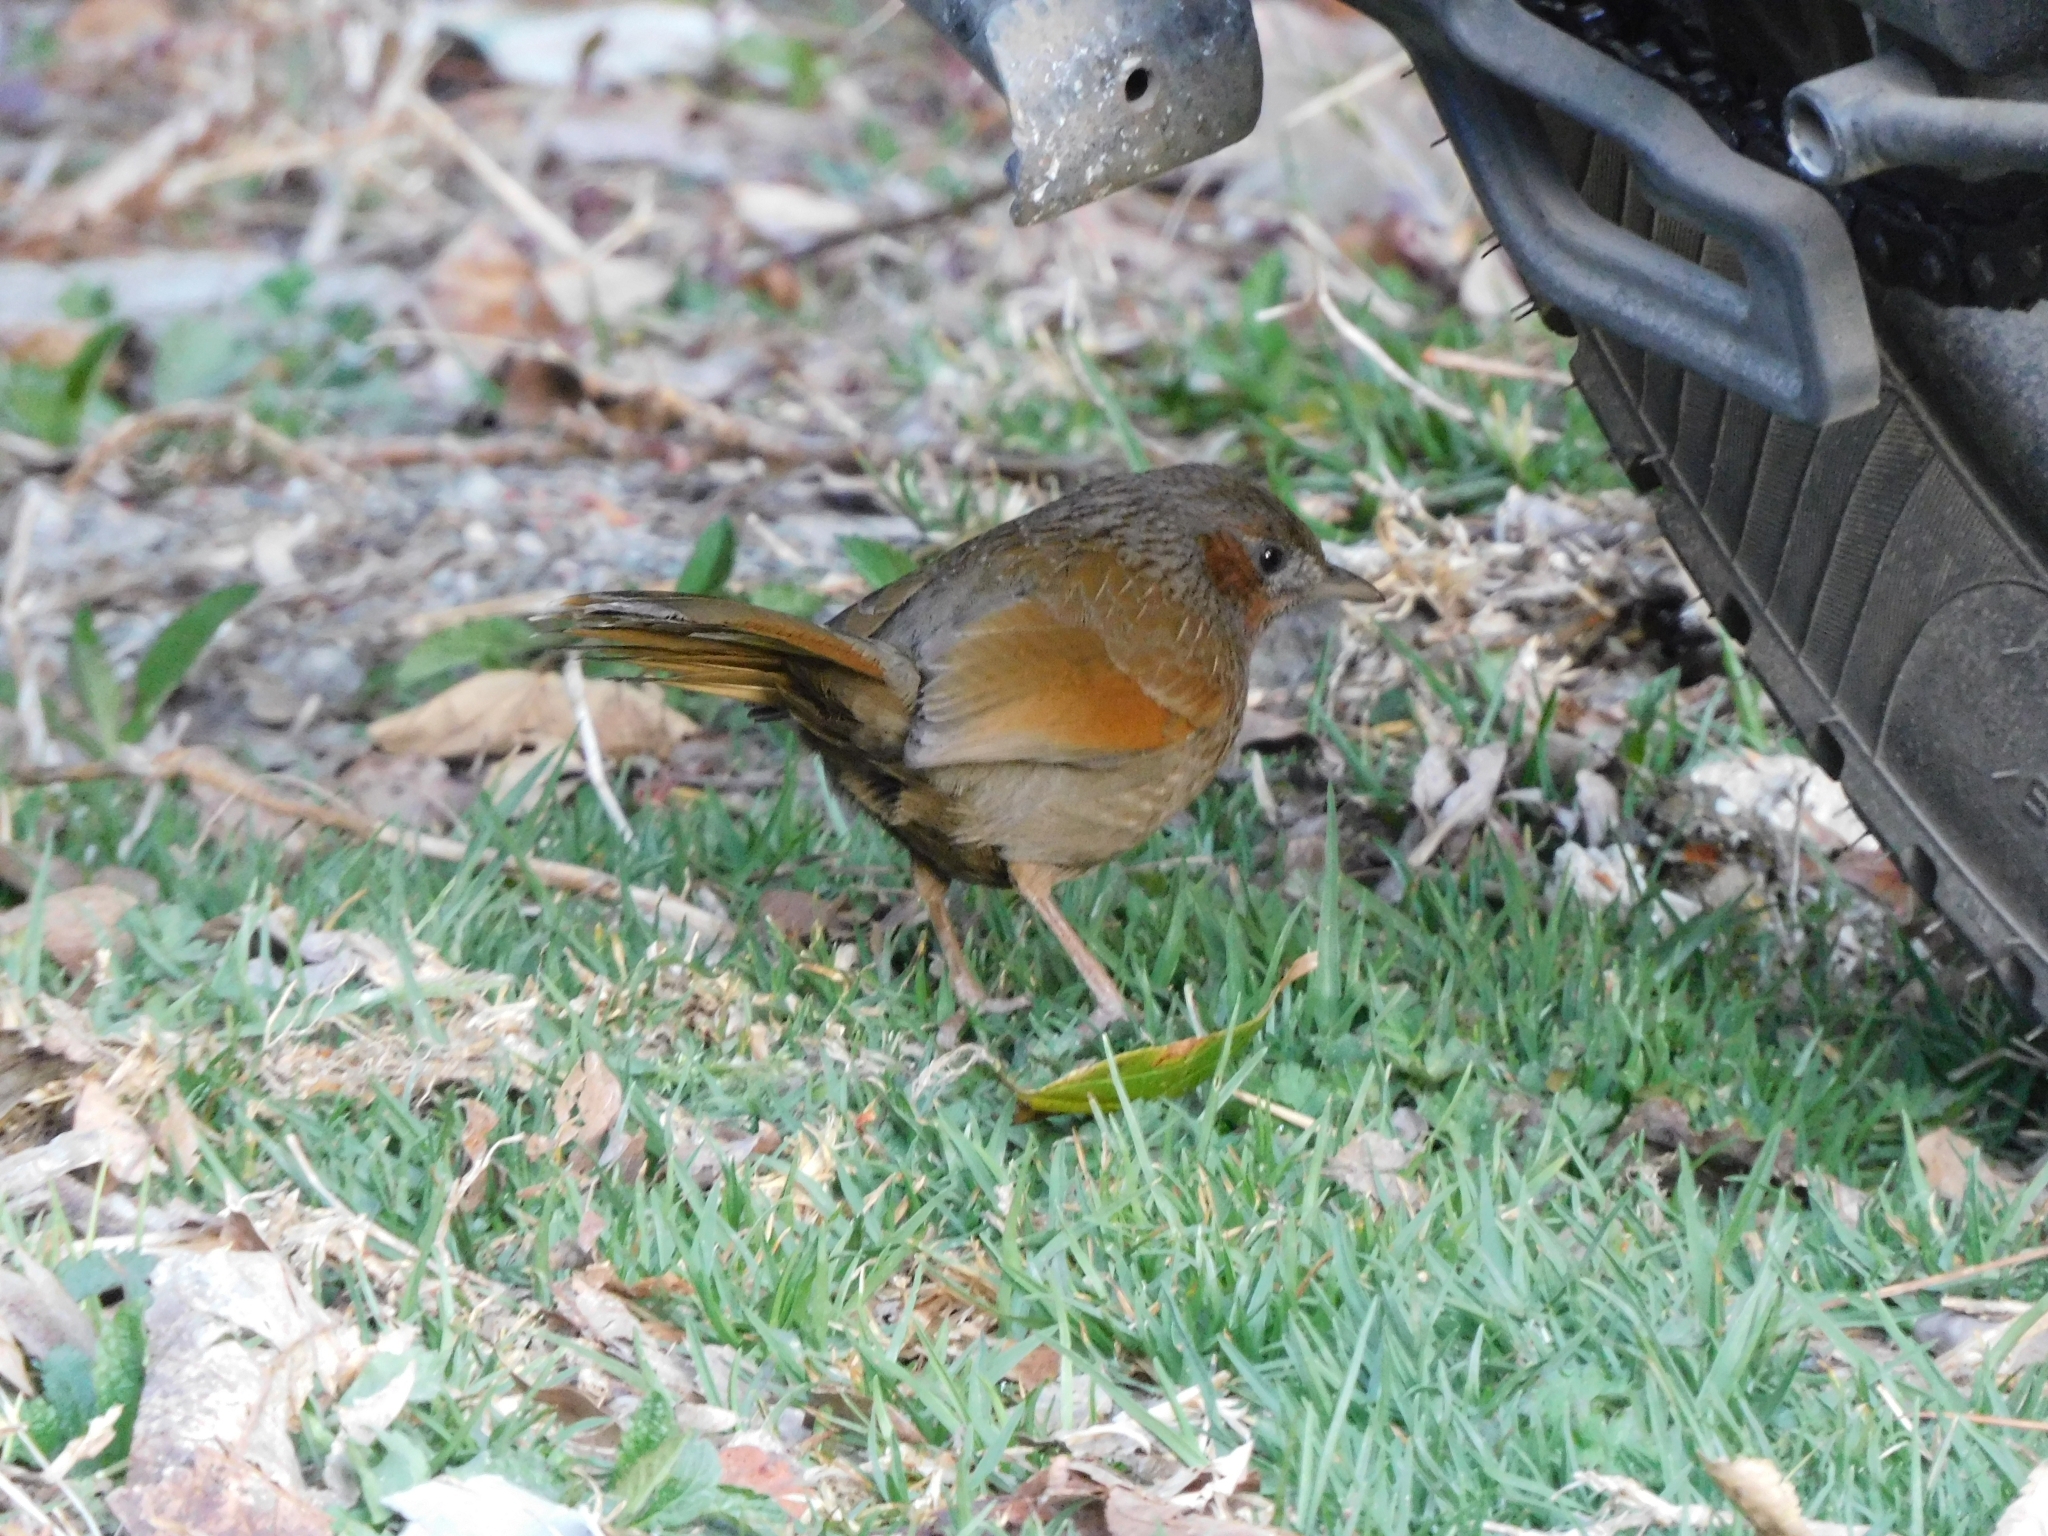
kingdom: Animalia
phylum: Chordata
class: Aves
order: Passeriformes
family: Leiothrichidae
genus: Trochalopteron
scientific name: Trochalopteron lineatum
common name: Streaked laughingthrush
